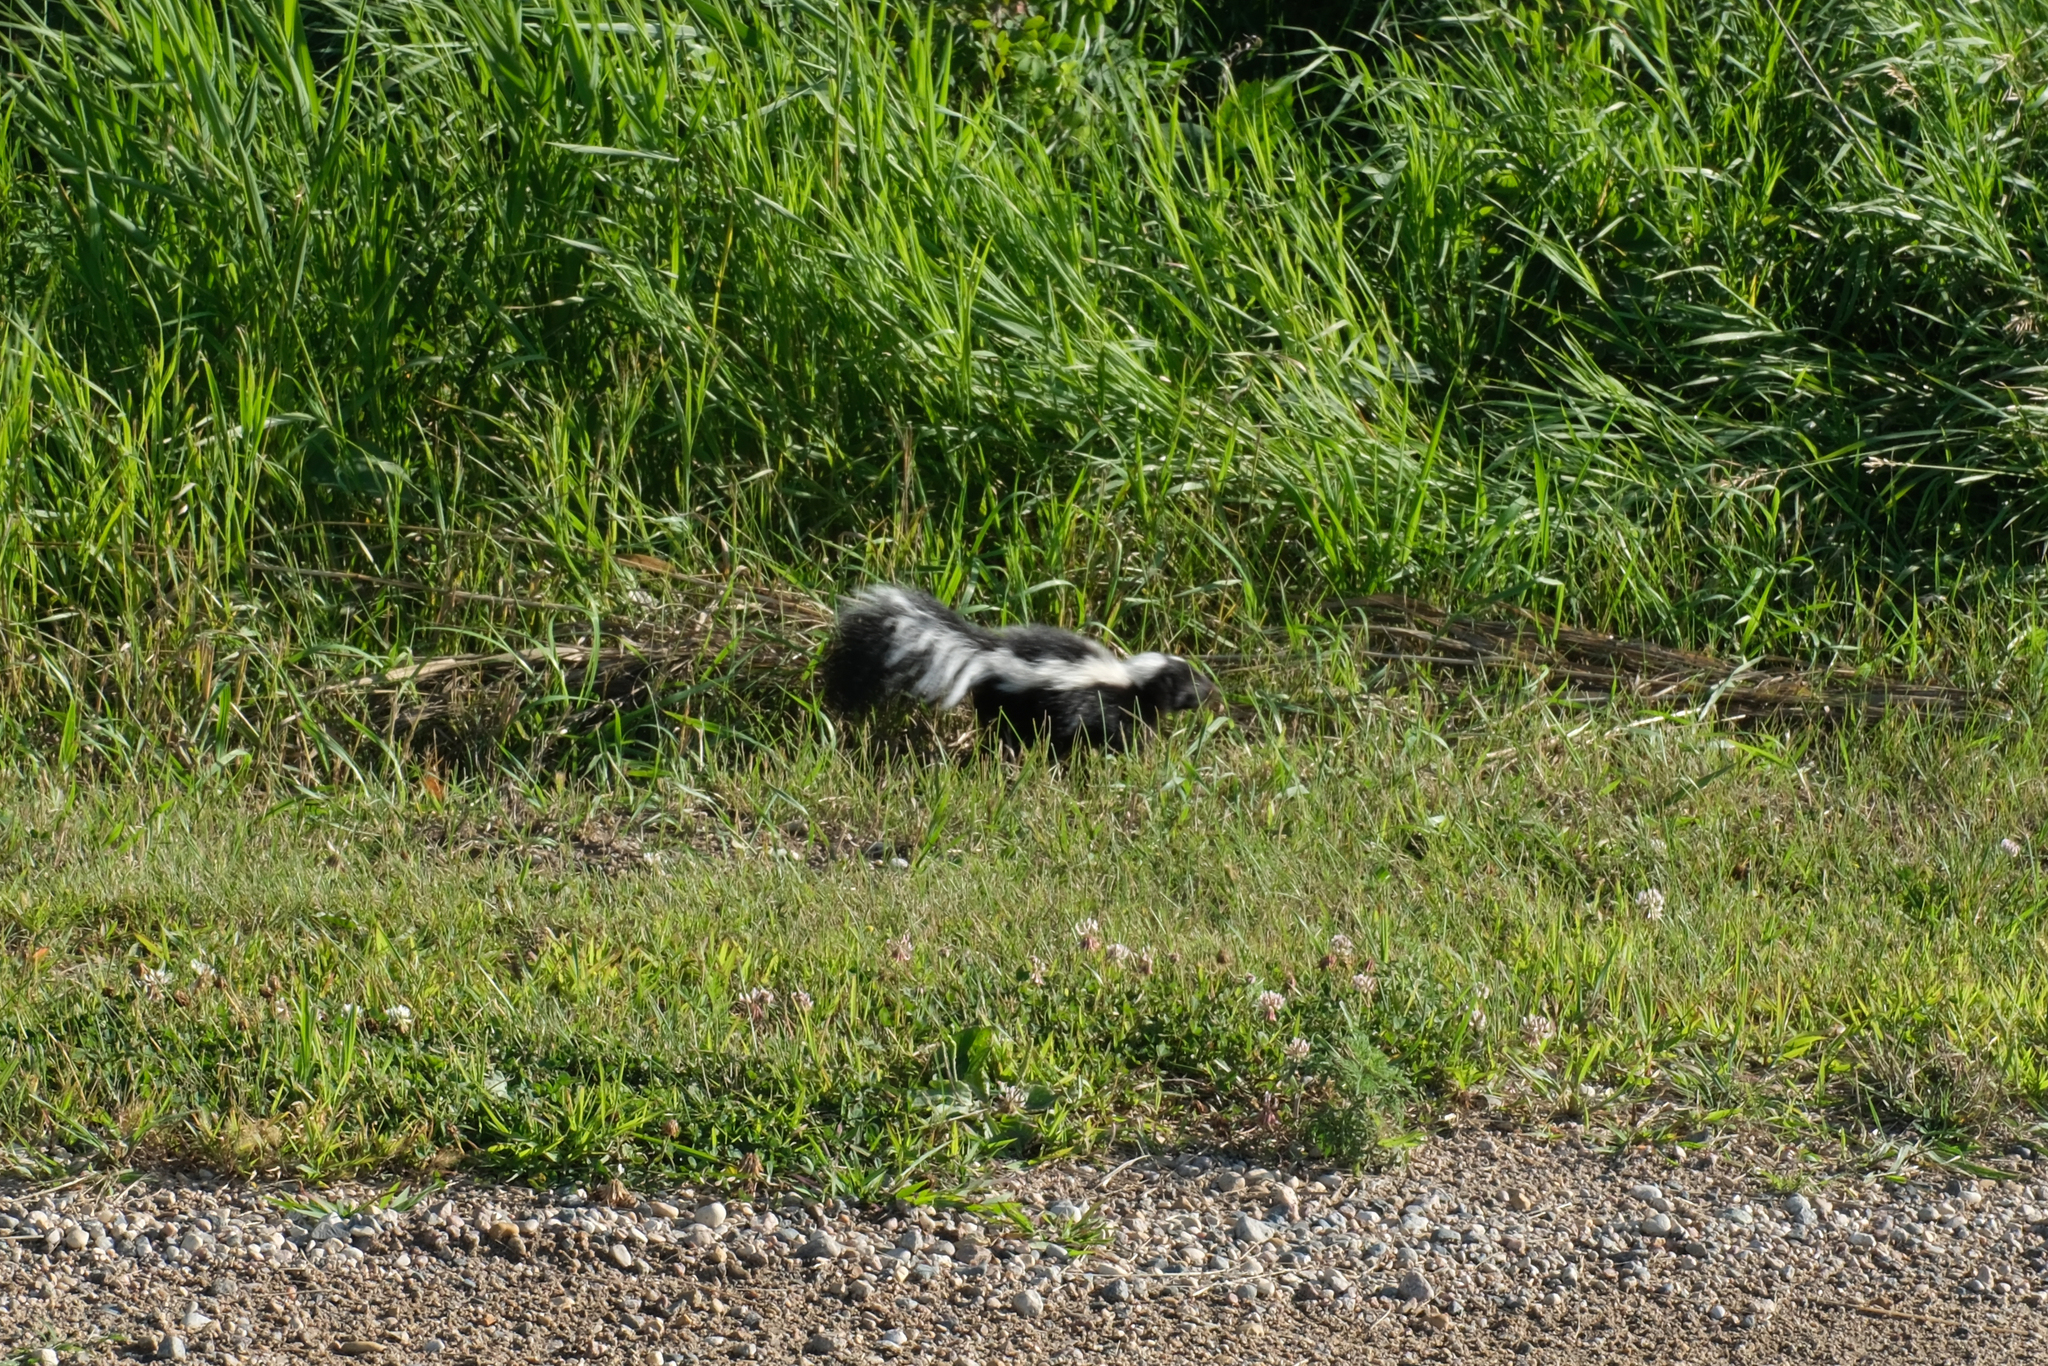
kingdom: Animalia
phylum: Chordata
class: Mammalia
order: Carnivora
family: Mephitidae
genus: Mephitis
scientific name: Mephitis mephitis
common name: Striped skunk
